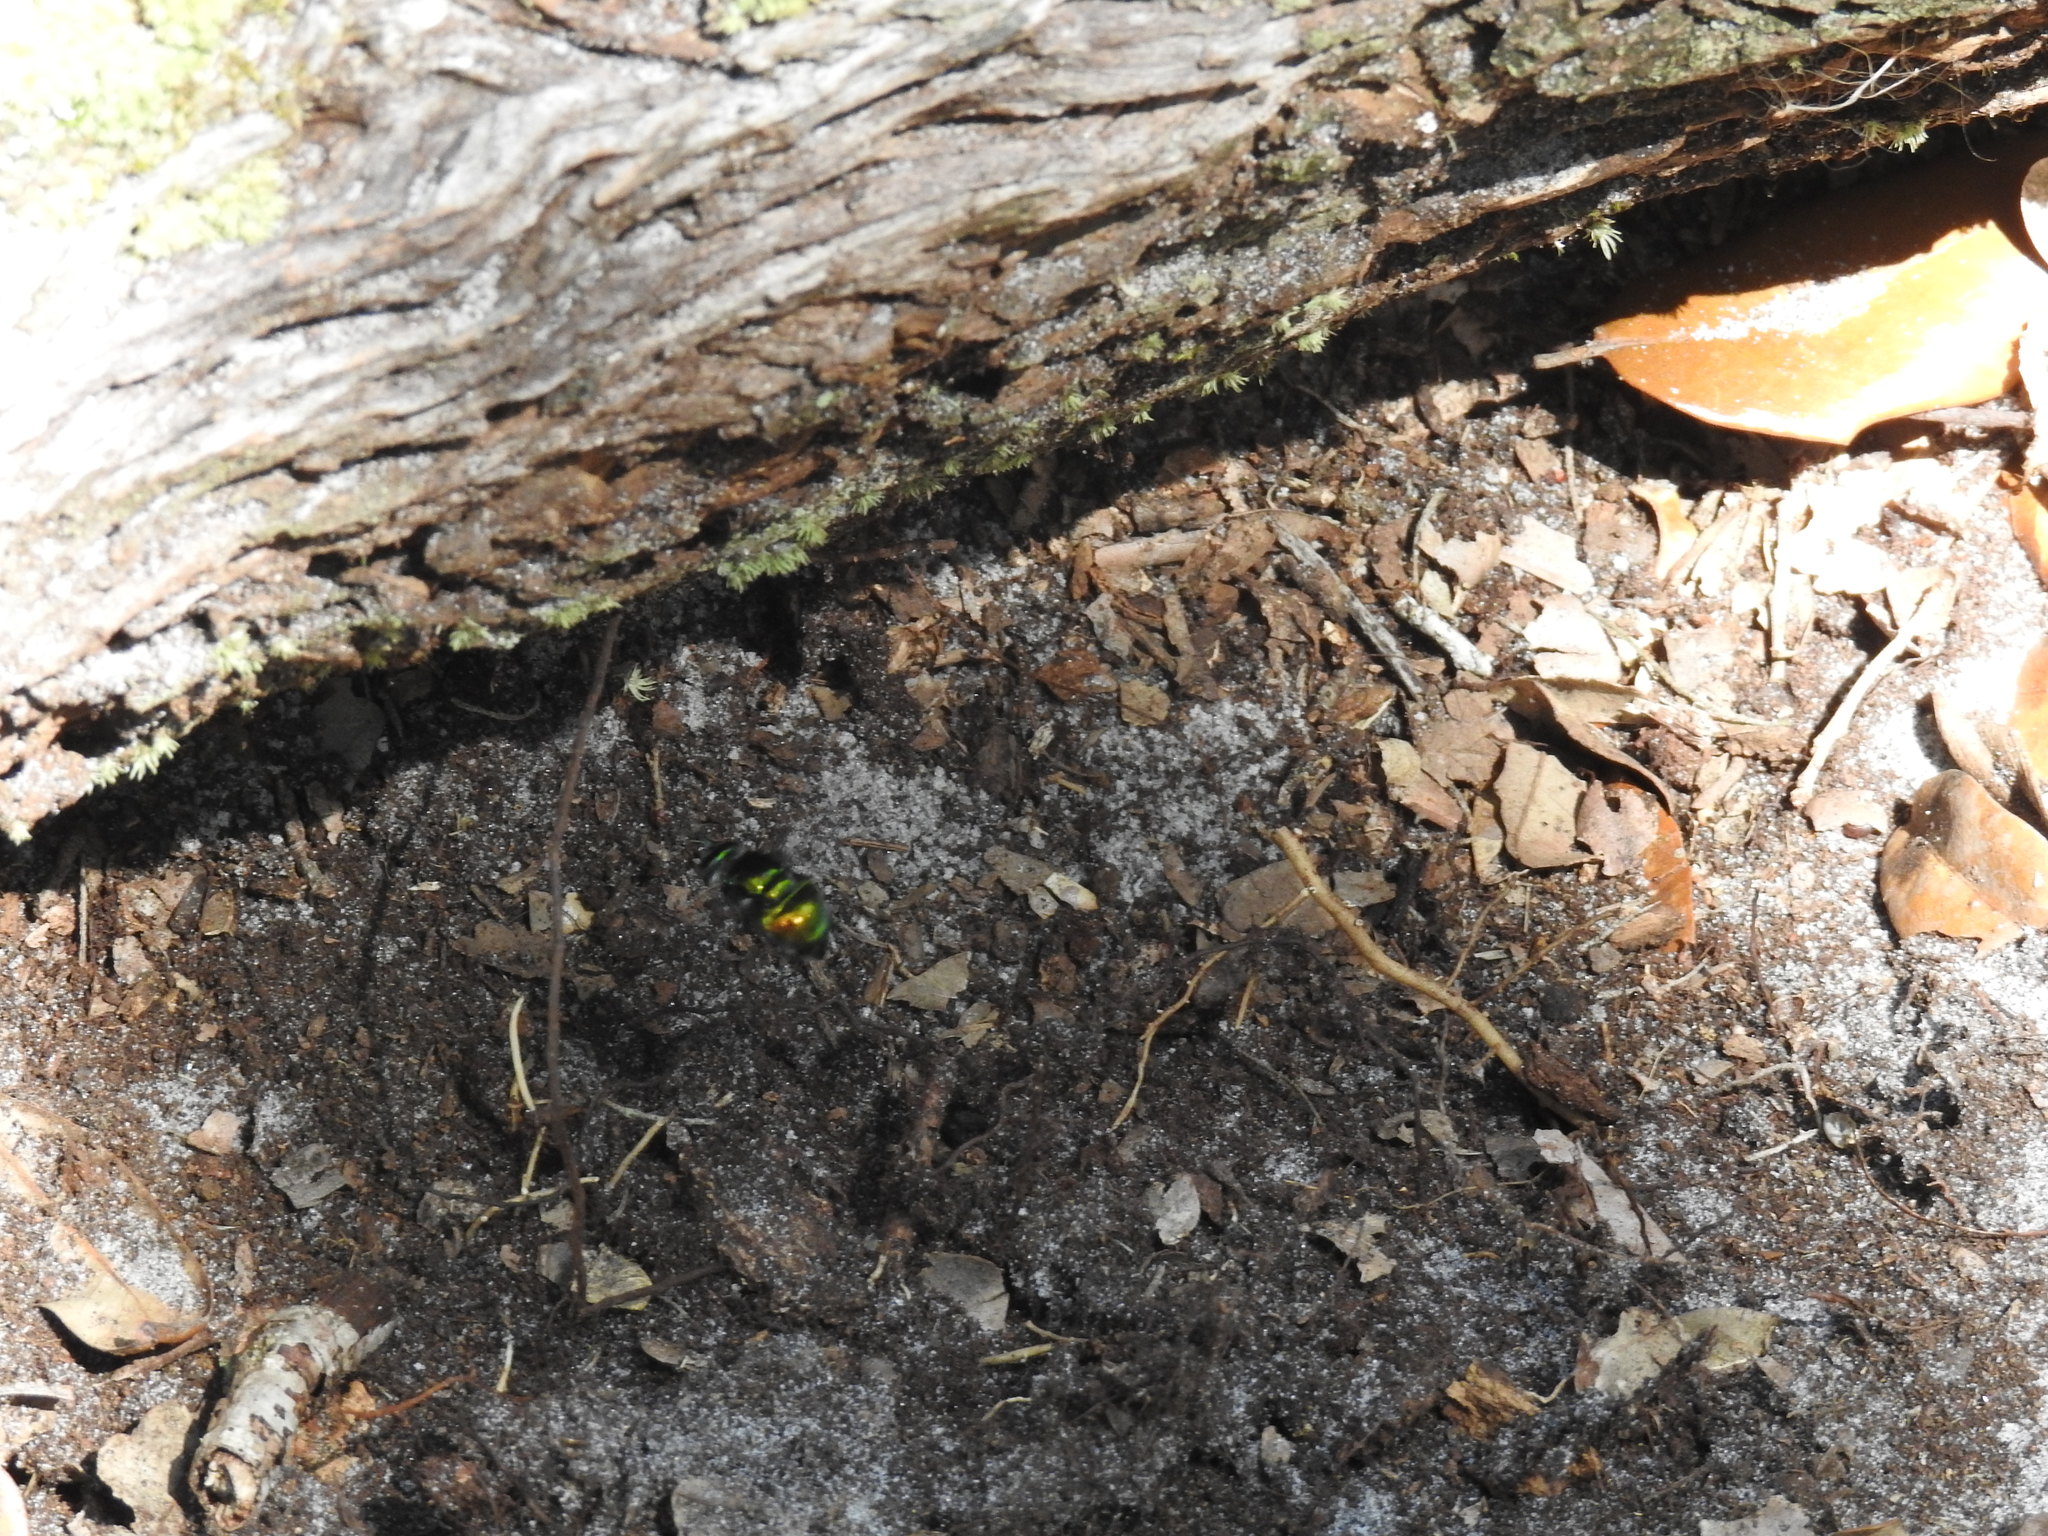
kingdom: Animalia
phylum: Arthropoda
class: Insecta
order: Diptera
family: Syrphidae
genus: Ornidia
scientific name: Ornidia obesa
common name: Syrphid fly
